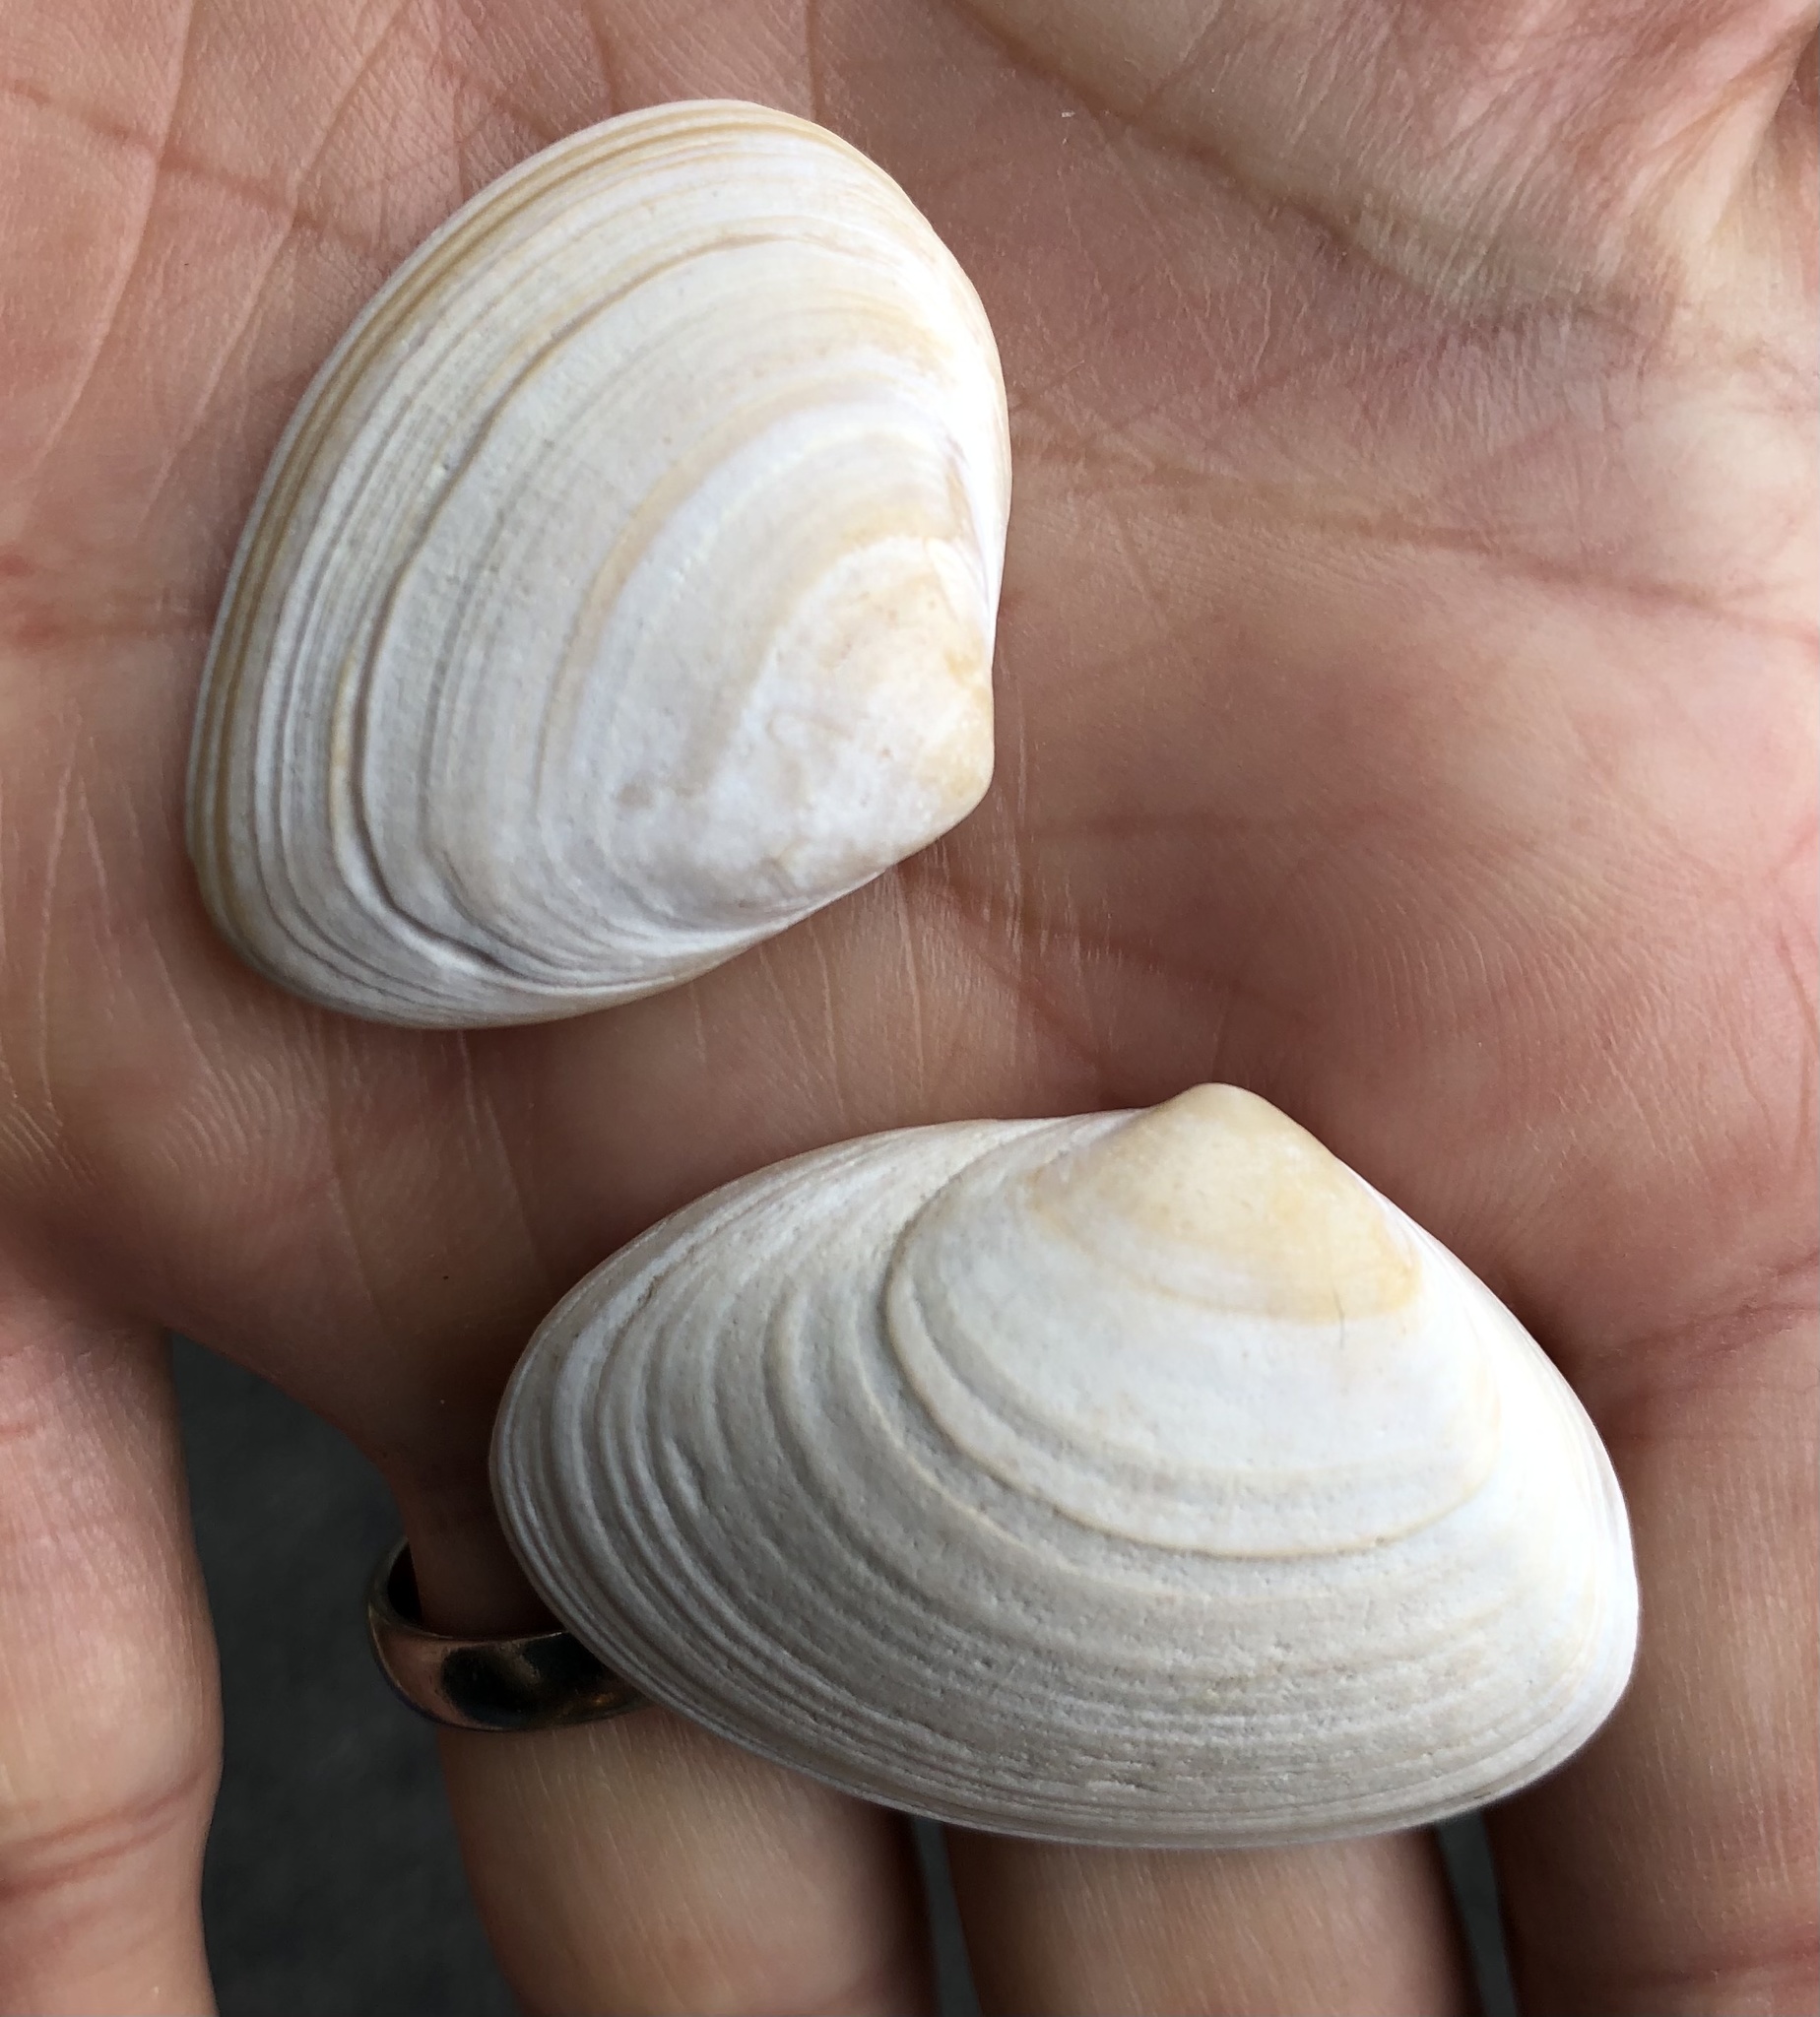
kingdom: Animalia
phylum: Mollusca
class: Bivalvia
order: Venerida
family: Mactridae
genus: Spisula
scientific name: Spisula solida
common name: Thick trough shell
